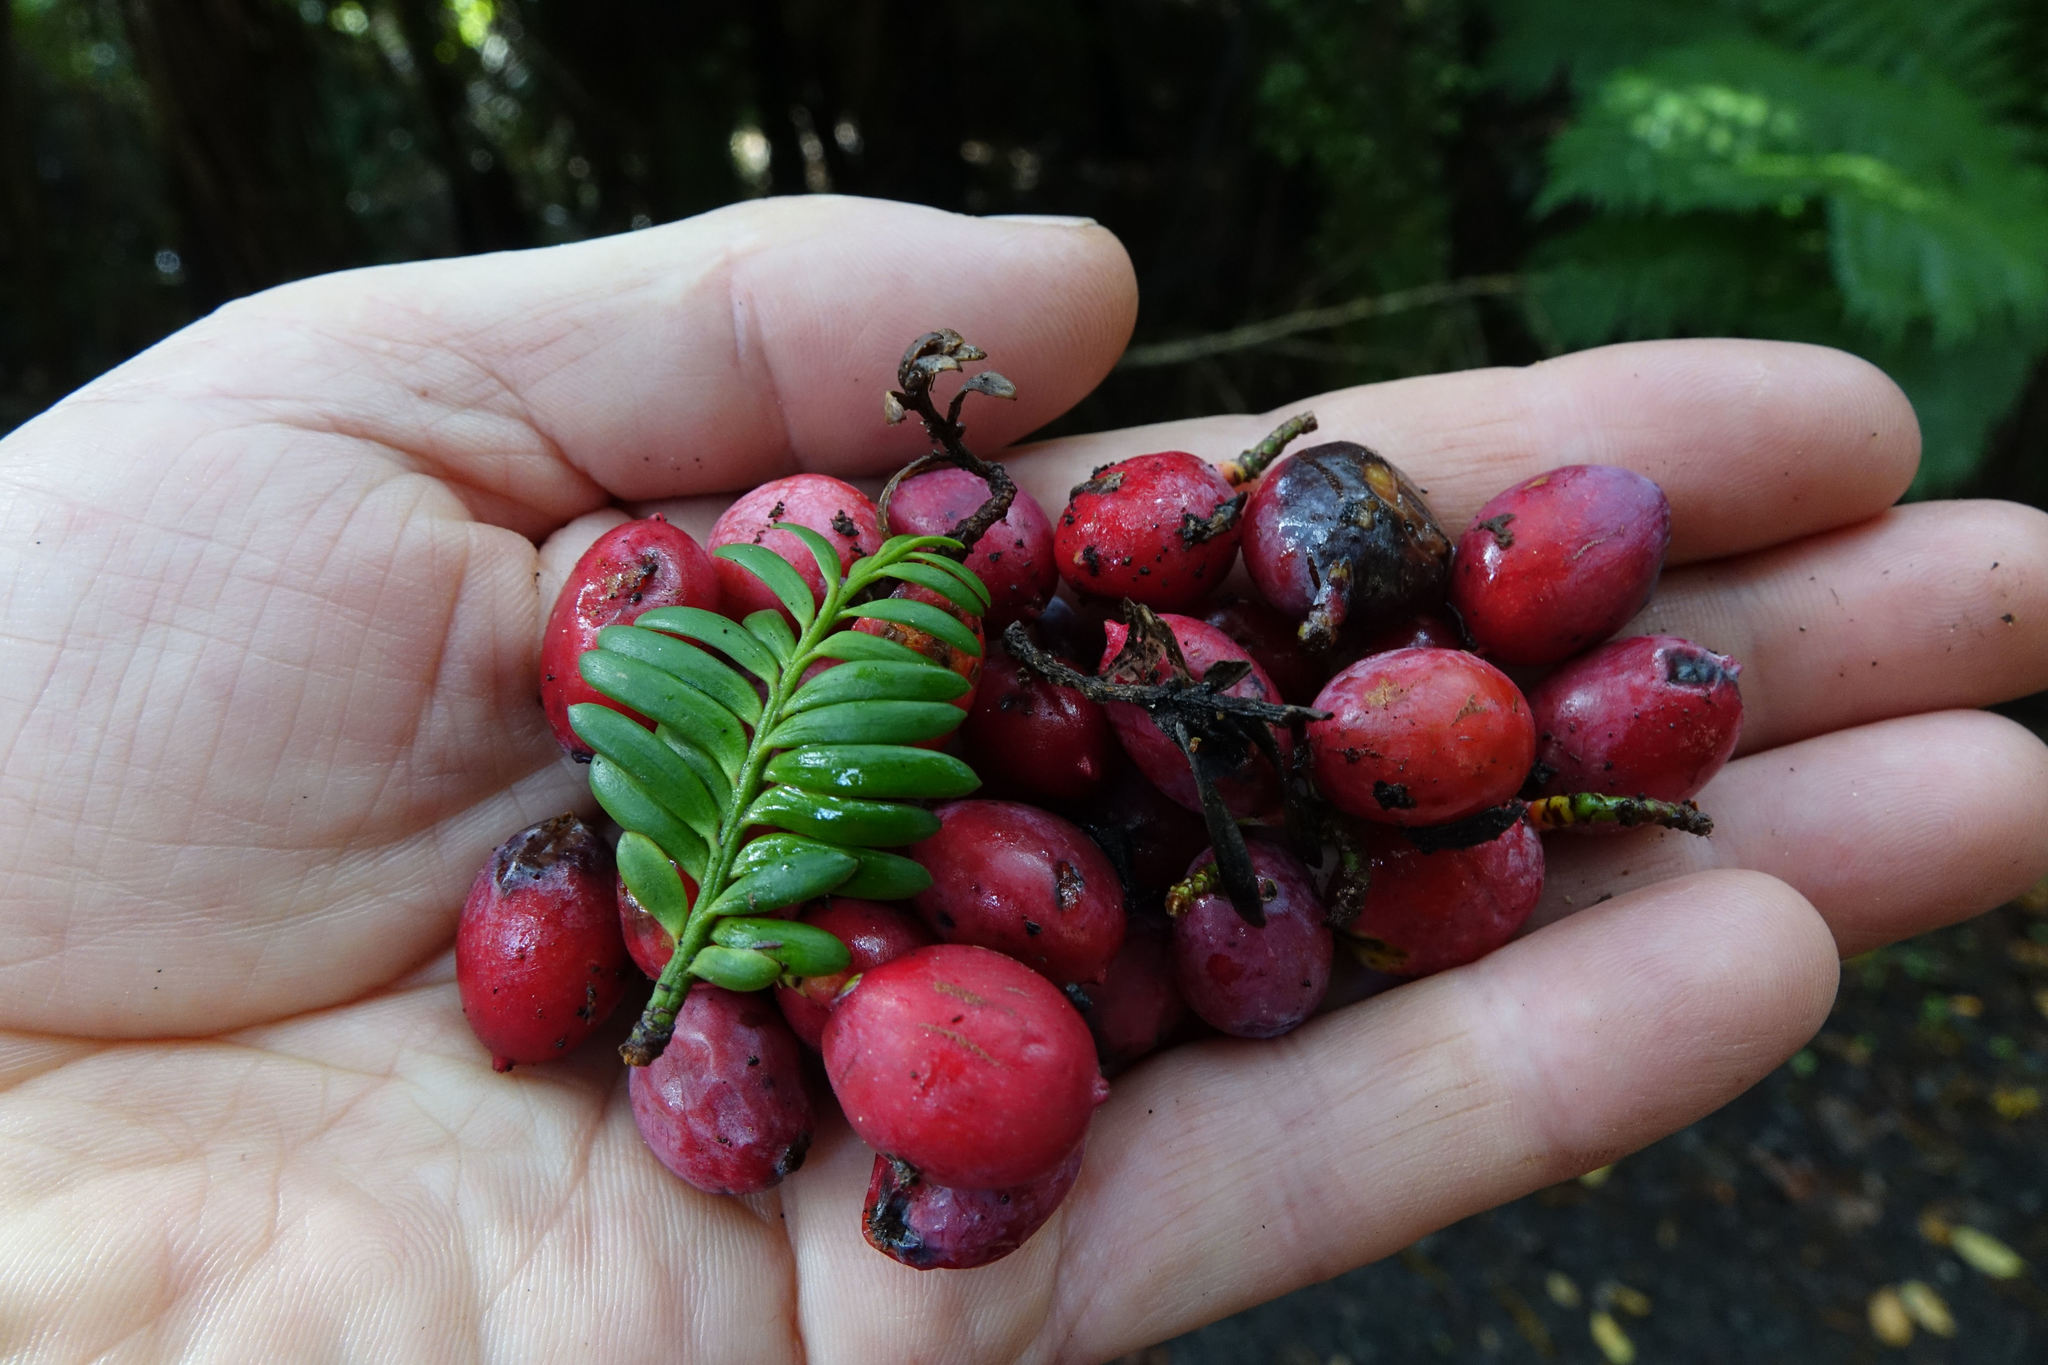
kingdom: Plantae
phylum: Tracheophyta
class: Pinopsida
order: Pinales
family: Podocarpaceae
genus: Prumnopitys
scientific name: Prumnopitys ferruginea
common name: Brown pine
